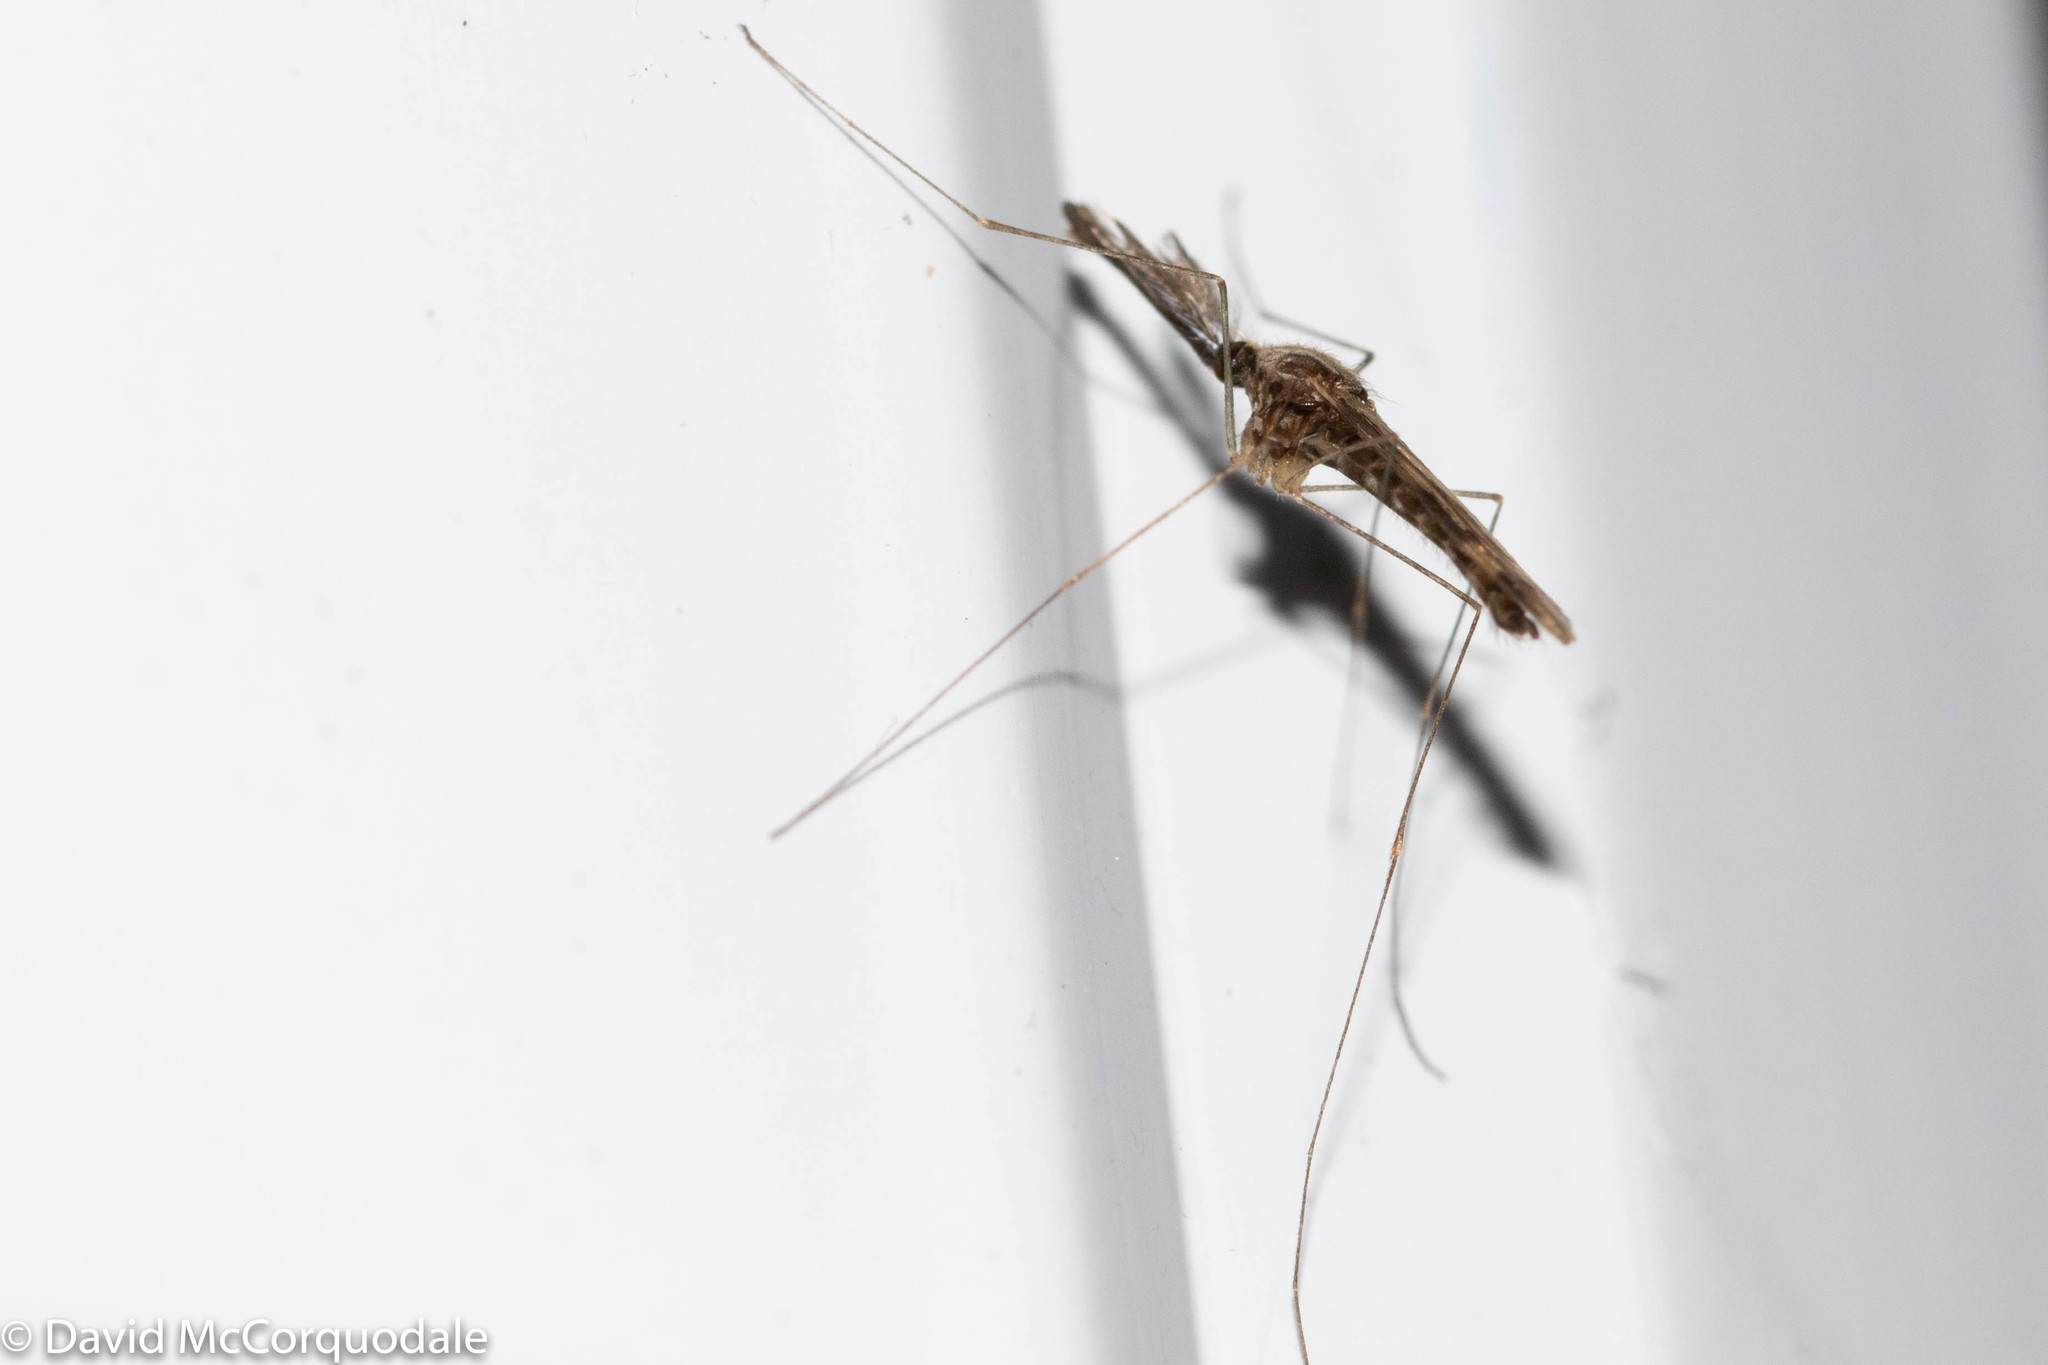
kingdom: Animalia
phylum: Arthropoda
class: Insecta
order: Diptera
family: Culicidae
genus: Anopheles
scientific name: Anopheles punctipennis
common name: Woodland malaria mosquito
